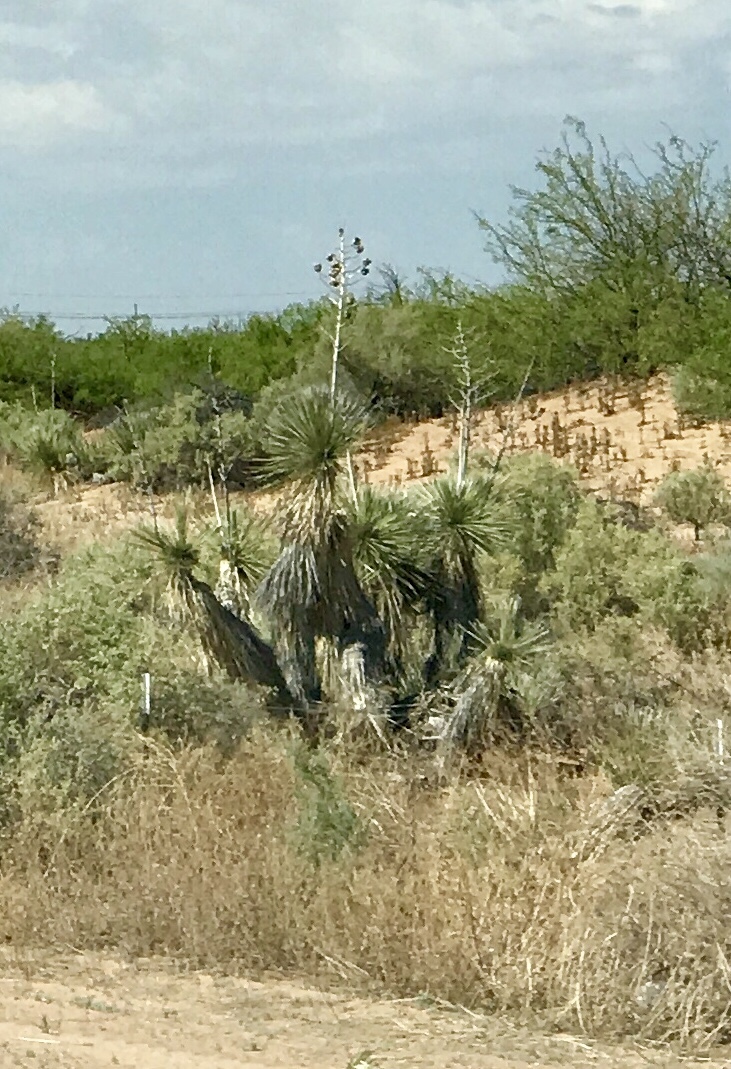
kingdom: Plantae
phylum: Tracheophyta
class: Liliopsida
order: Asparagales
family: Asparagaceae
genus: Yucca
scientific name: Yucca elata
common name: Palmella
